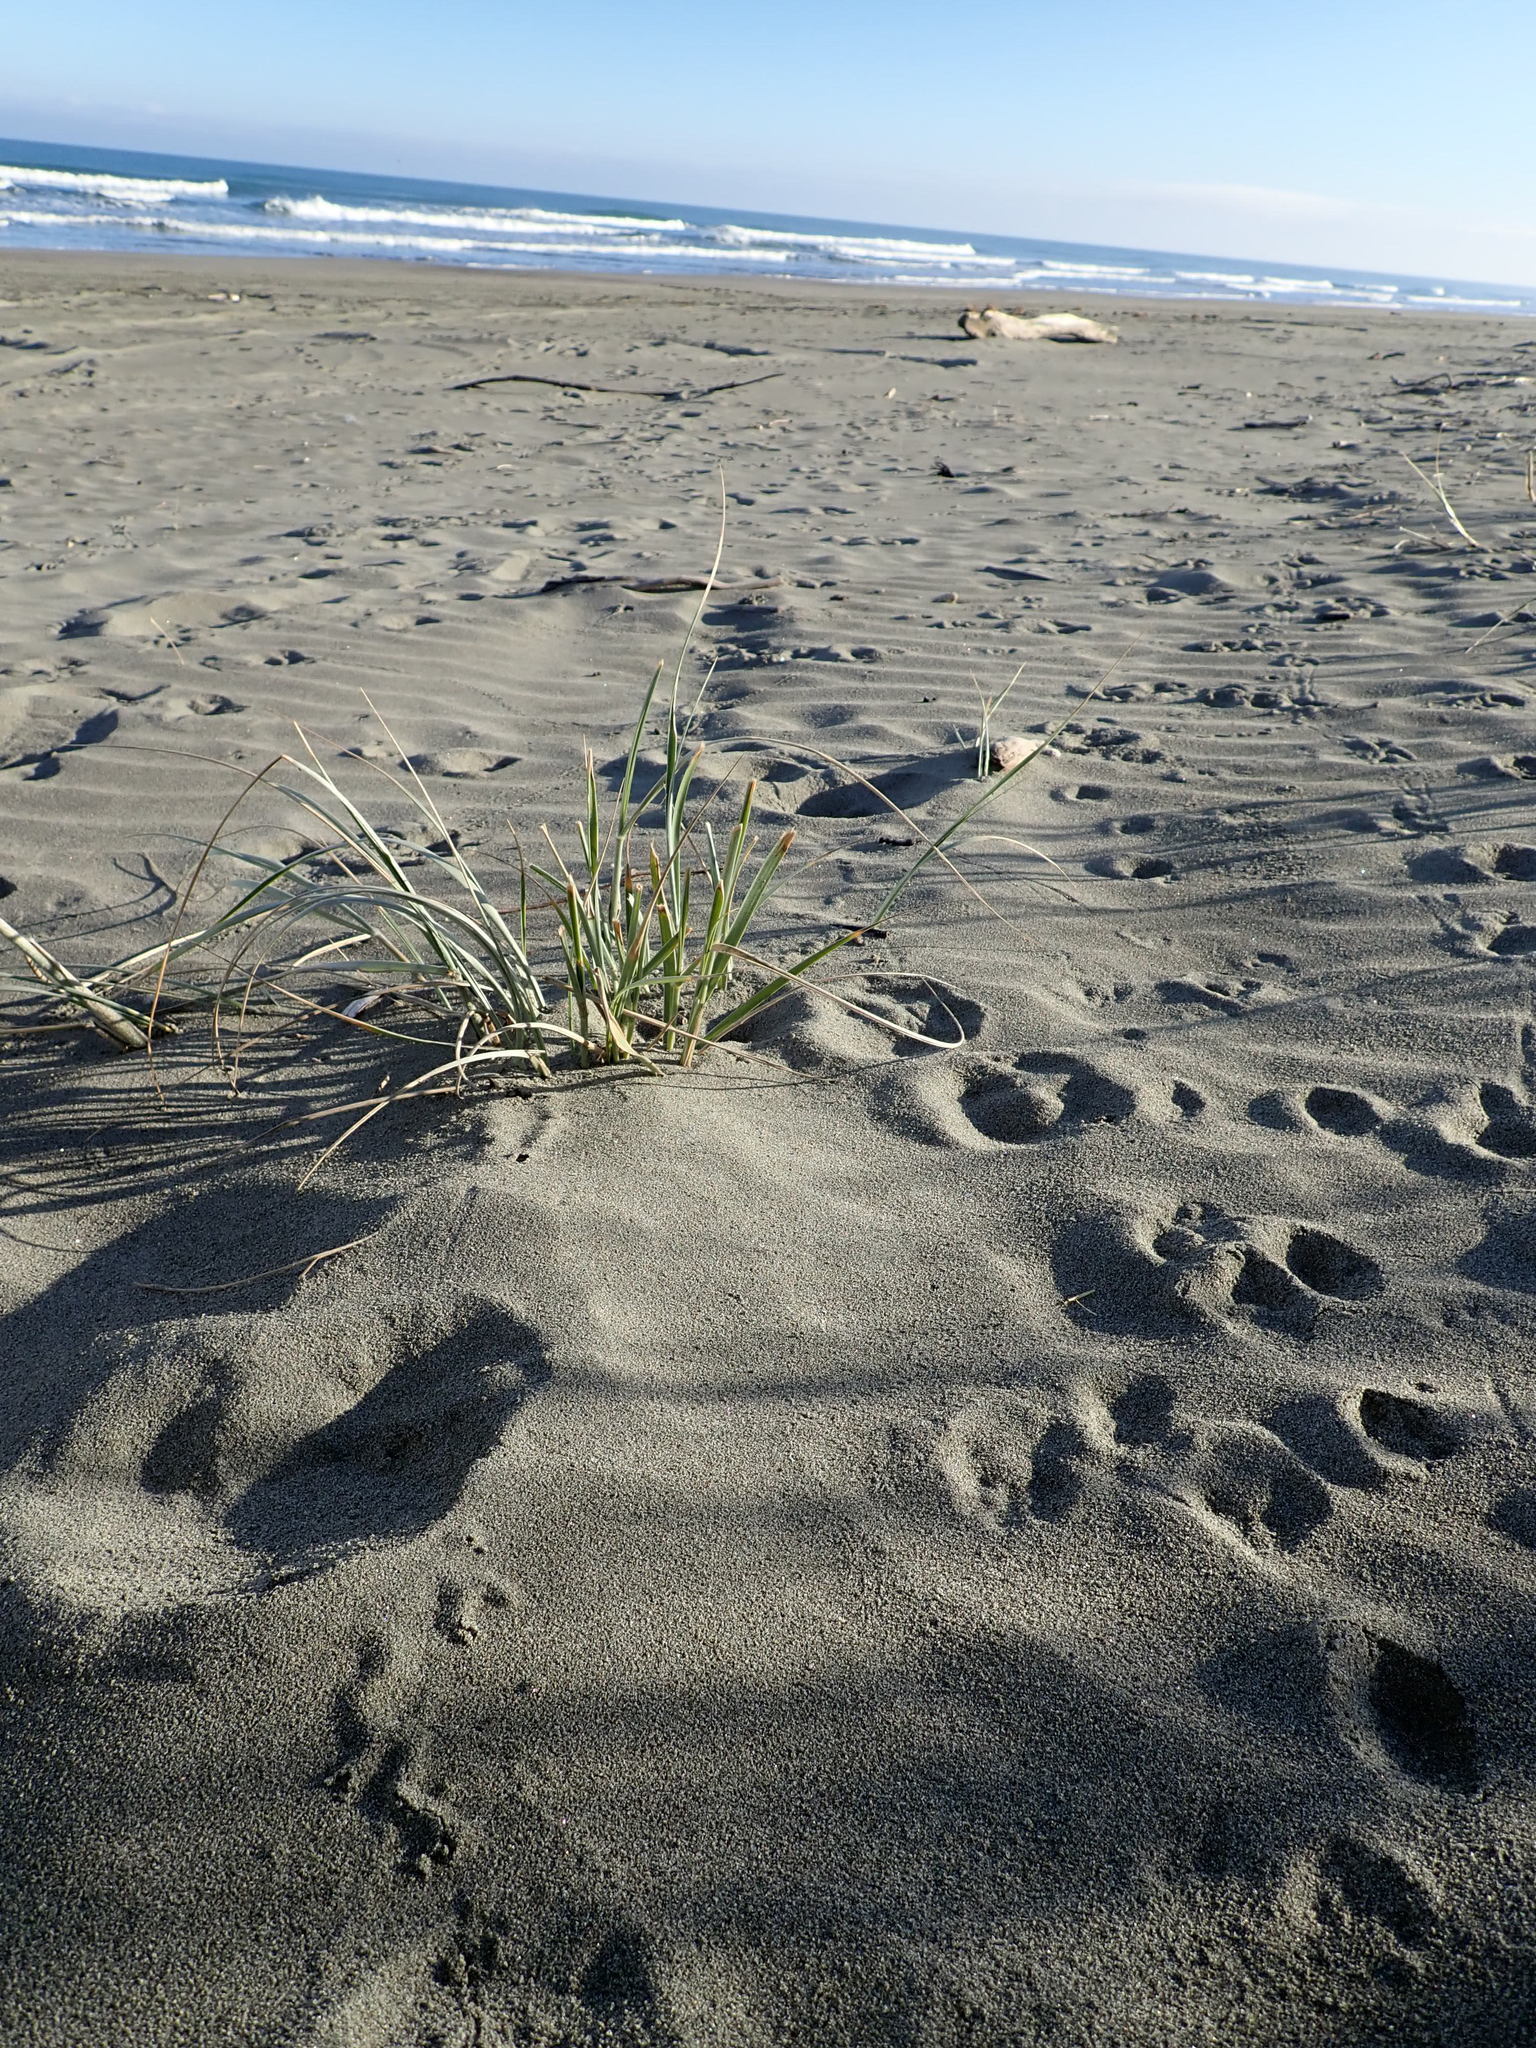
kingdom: Plantae
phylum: Tracheophyta
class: Liliopsida
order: Poales
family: Poaceae
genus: Spinifex
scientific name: Spinifex sericeus
